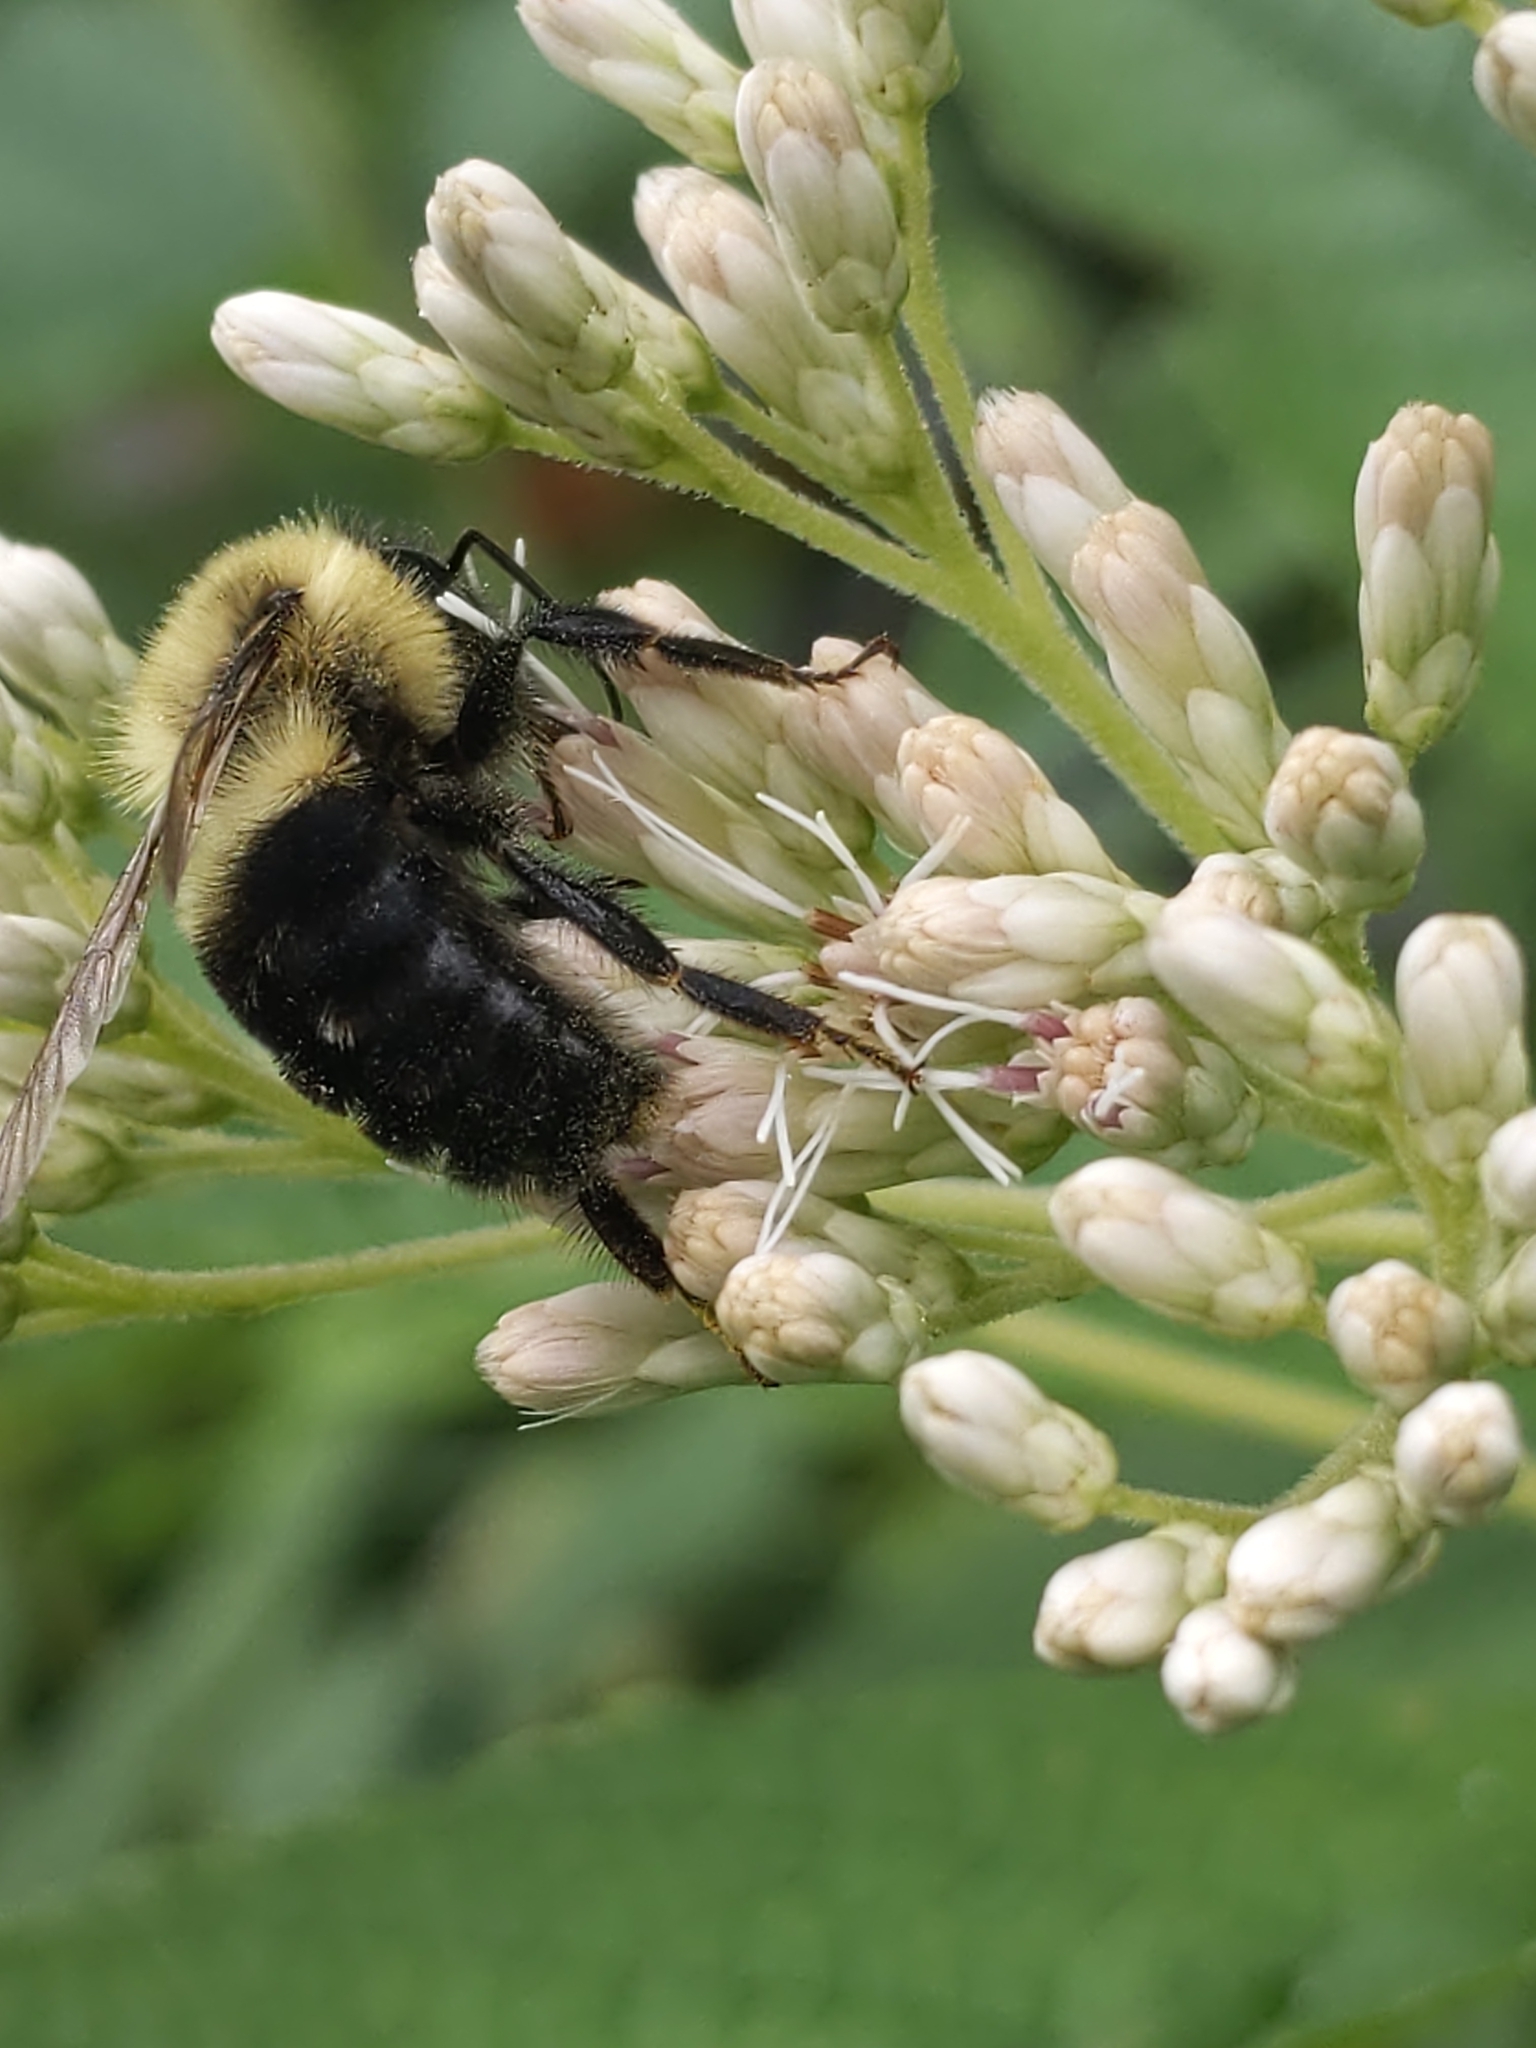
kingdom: Animalia
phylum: Arthropoda
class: Insecta
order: Hymenoptera
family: Apidae
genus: Bombus
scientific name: Bombus impatiens
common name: Common eastern bumble bee
